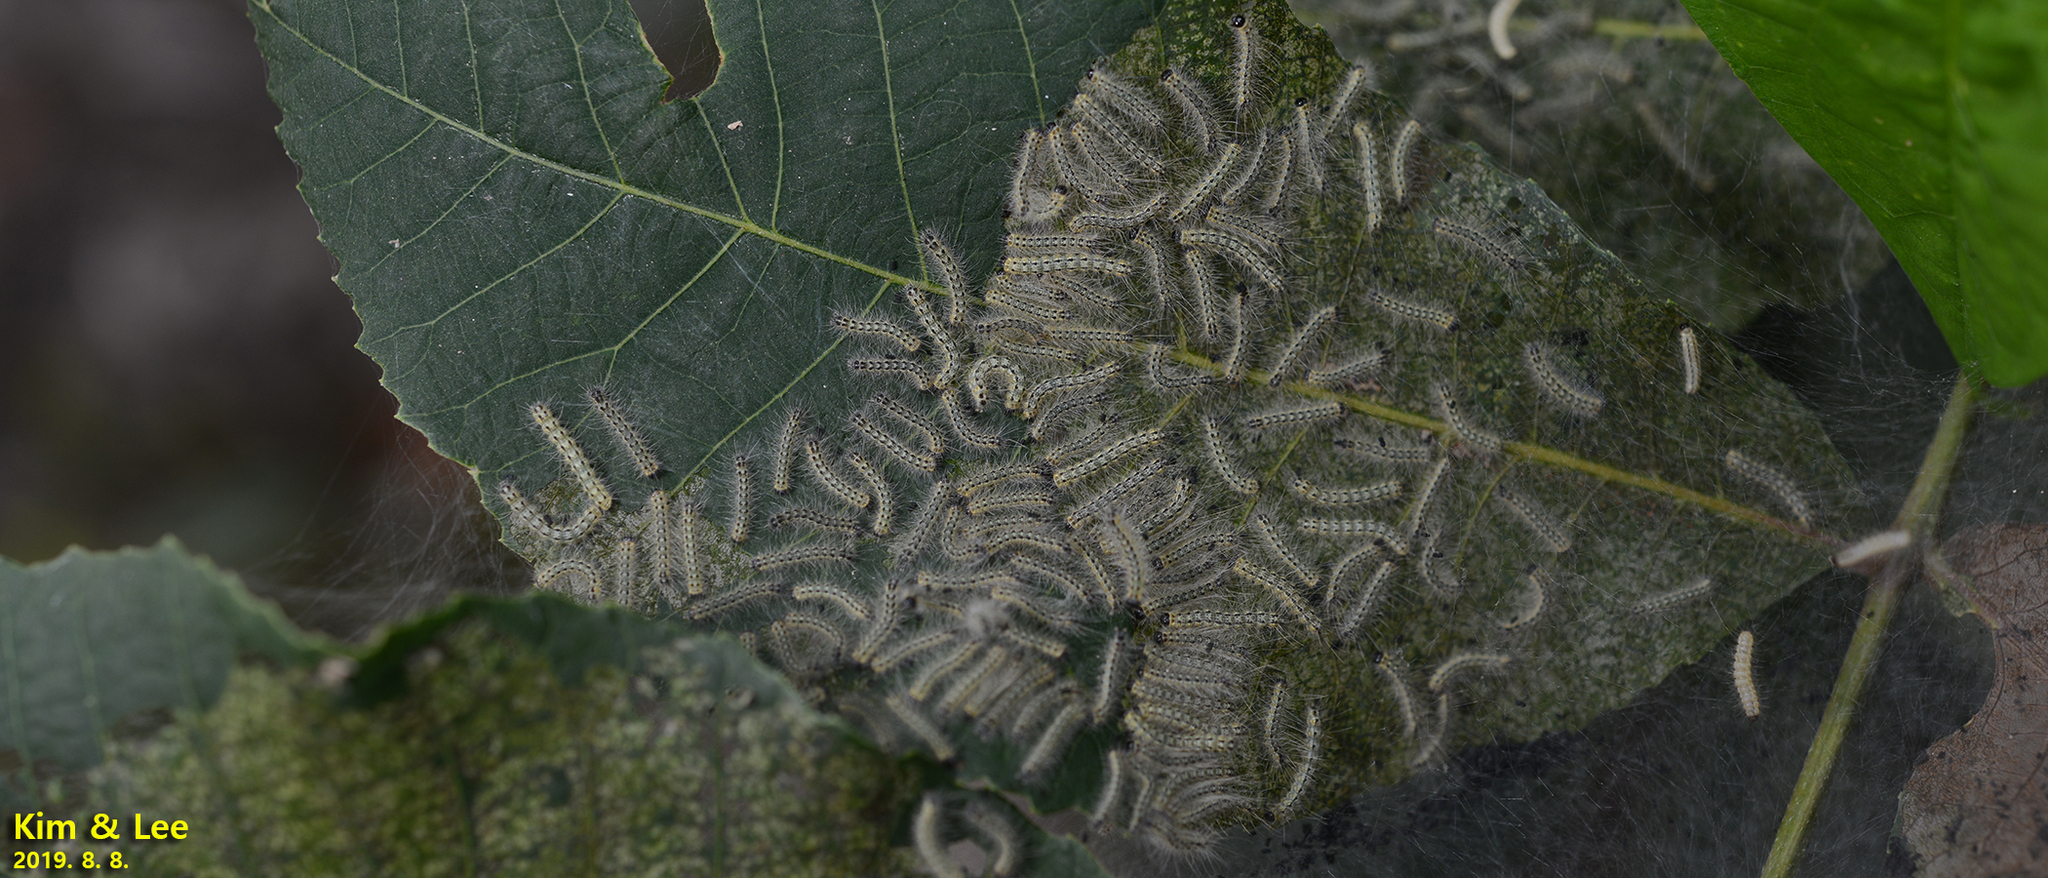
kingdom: Animalia
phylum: Arthropoda
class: Insecta
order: Lepidoptera
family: Erebidae
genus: Hyphantria
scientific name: Hyphantria cunea
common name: American white moth
